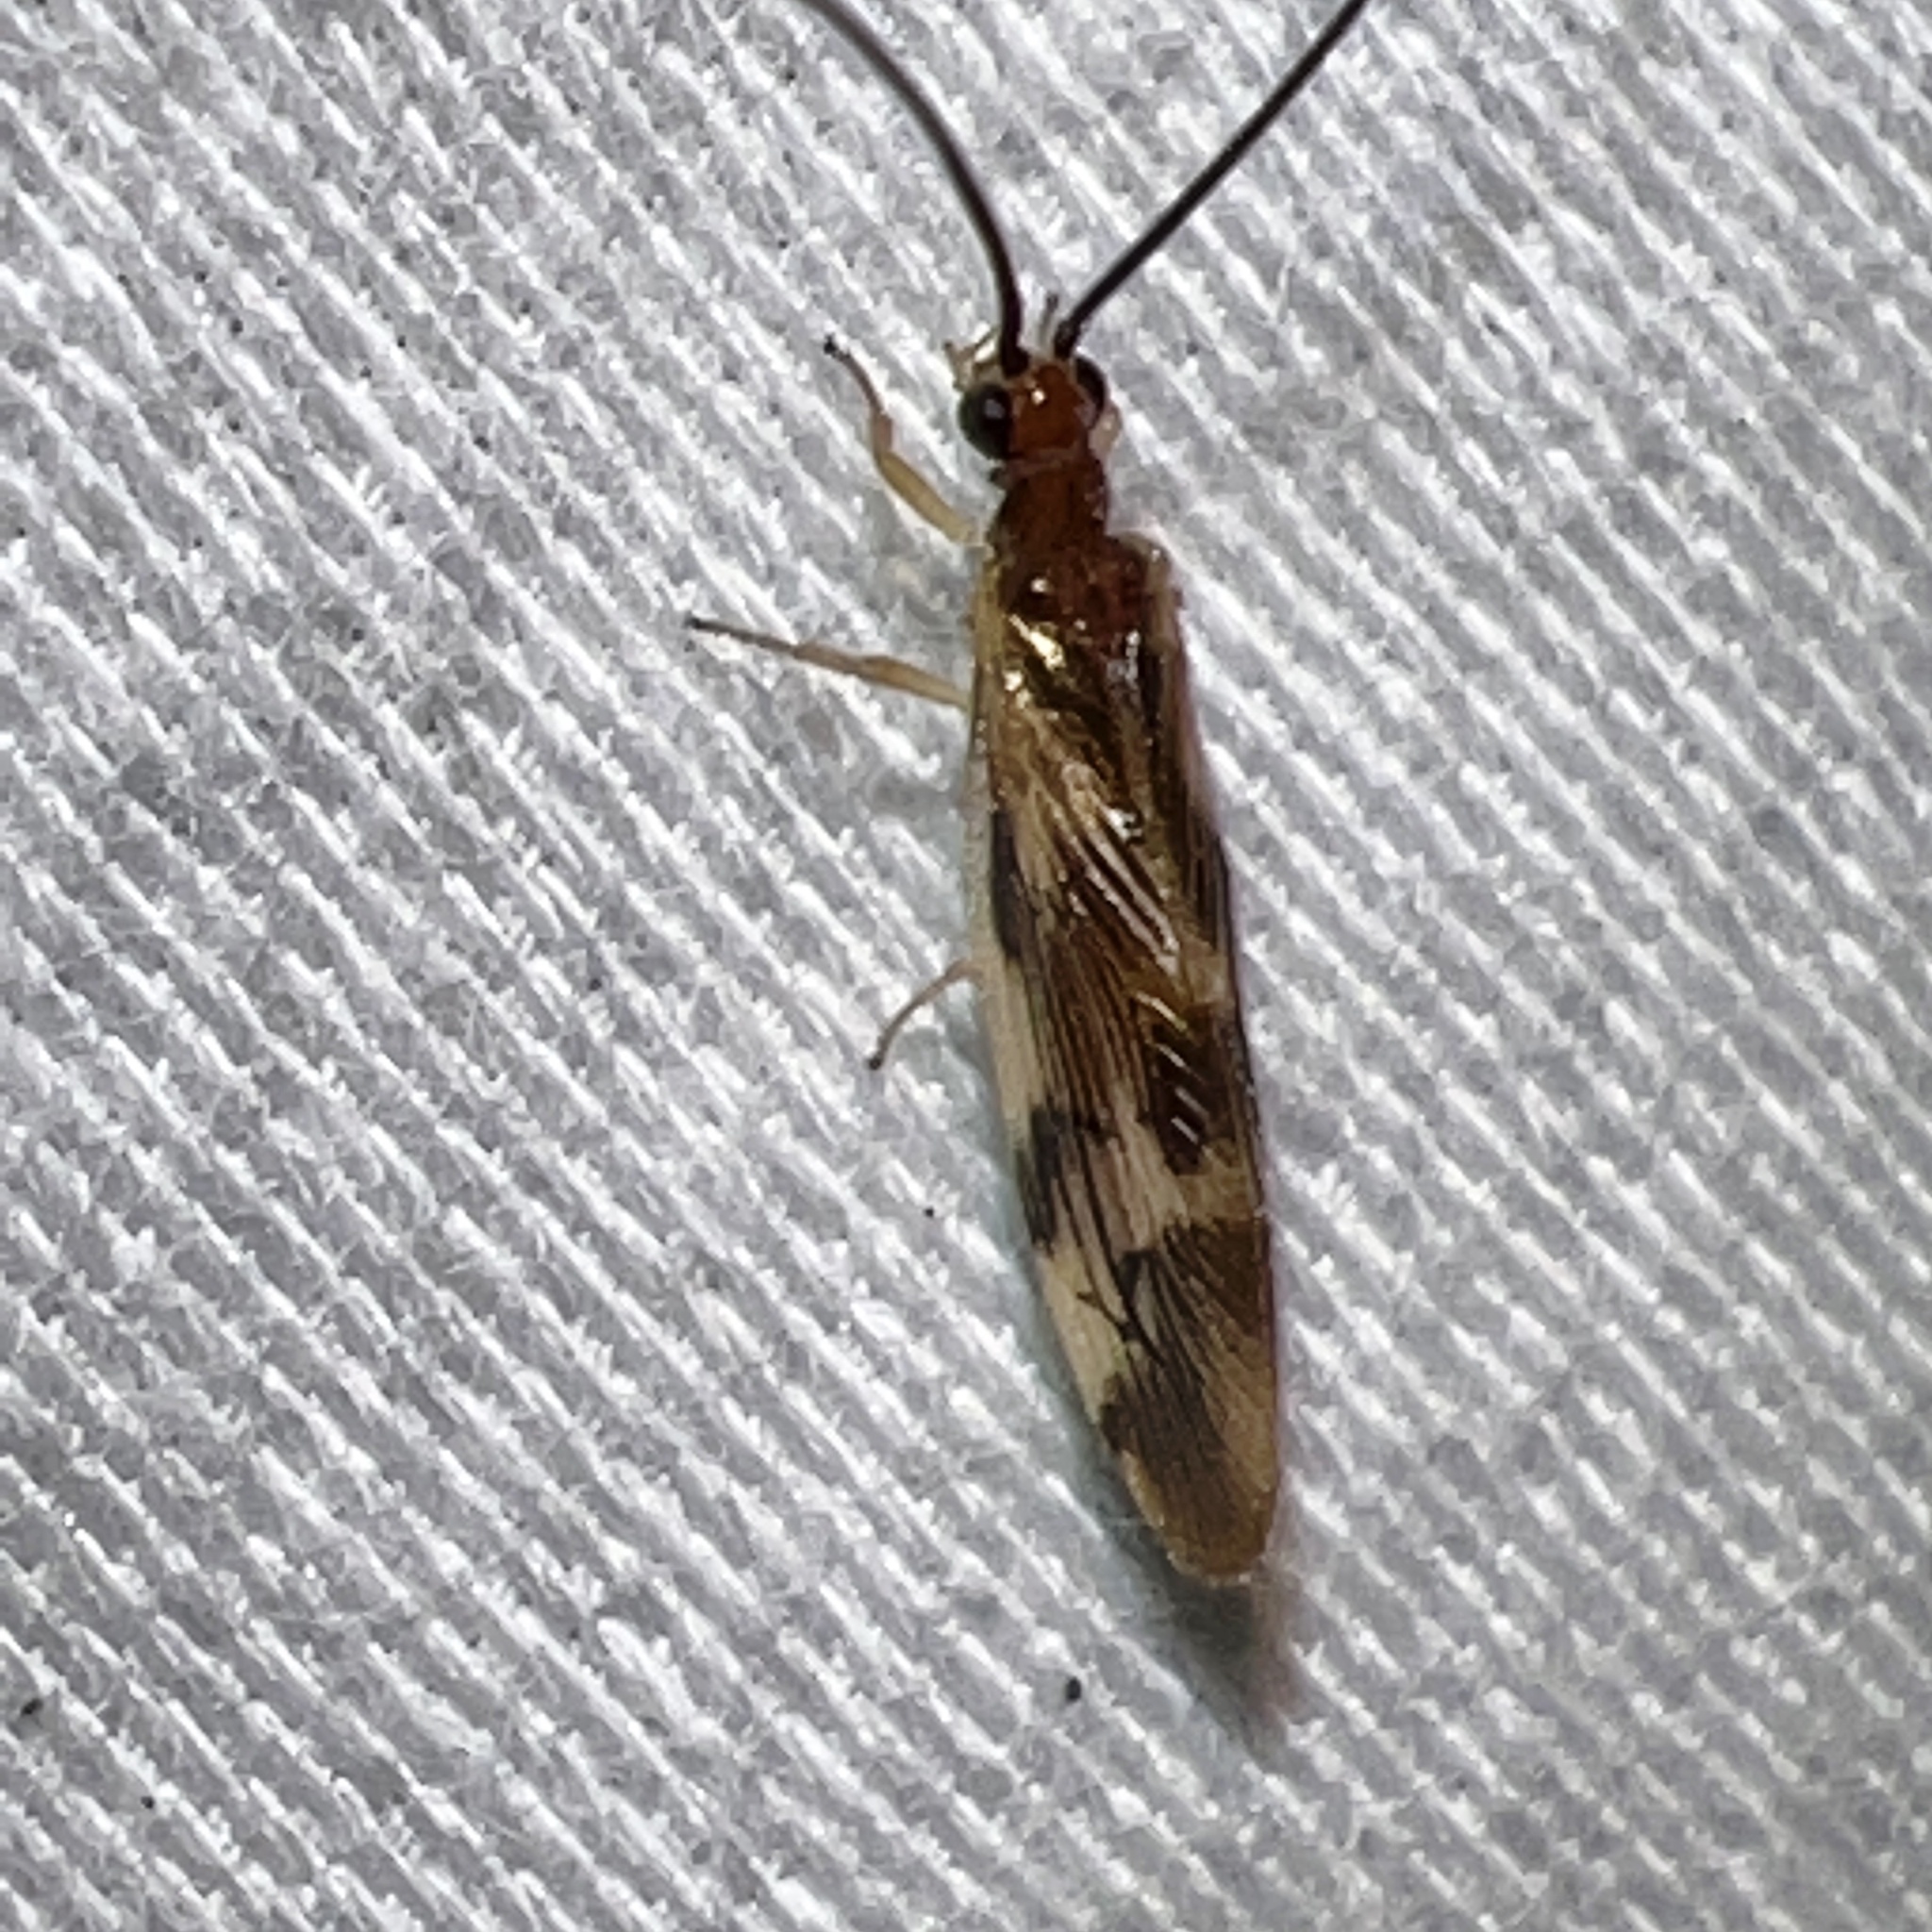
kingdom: Animalia
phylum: Arthropoda
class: Insecta
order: Neuroptera
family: Sisyridae
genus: Climacia
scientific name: Climacia areolaris
